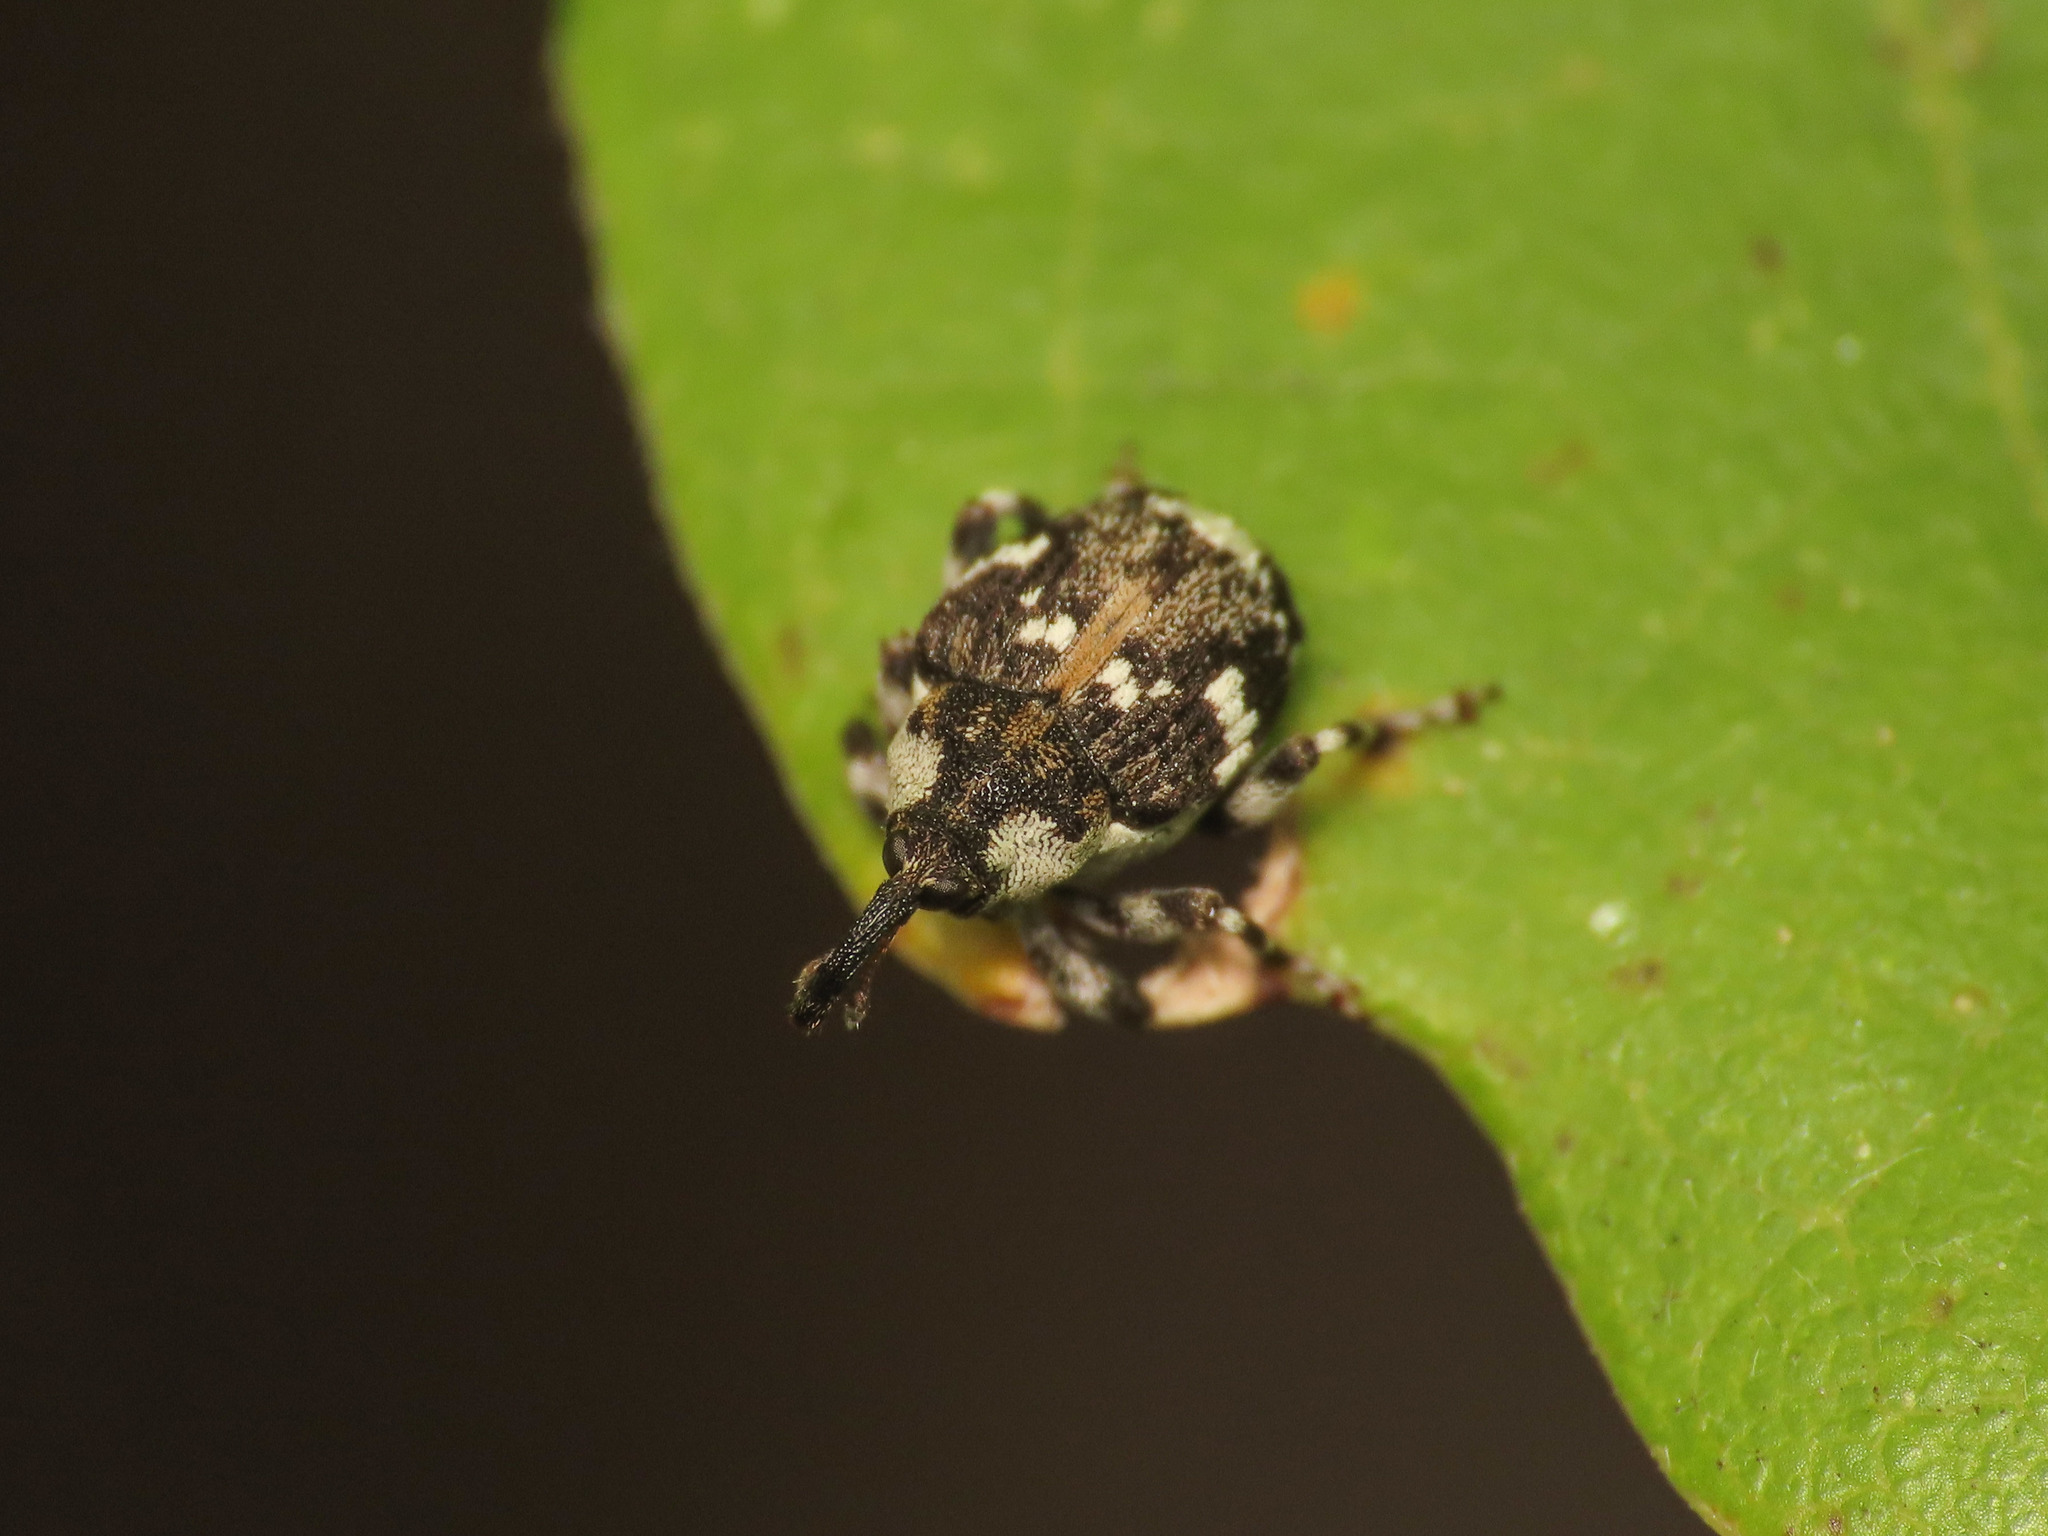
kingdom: Animalia
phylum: Arthropoda
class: Insecta
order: Coleoptera
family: Curculionidae
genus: Hadroplontus
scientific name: Hadroplontus trimaculatus
